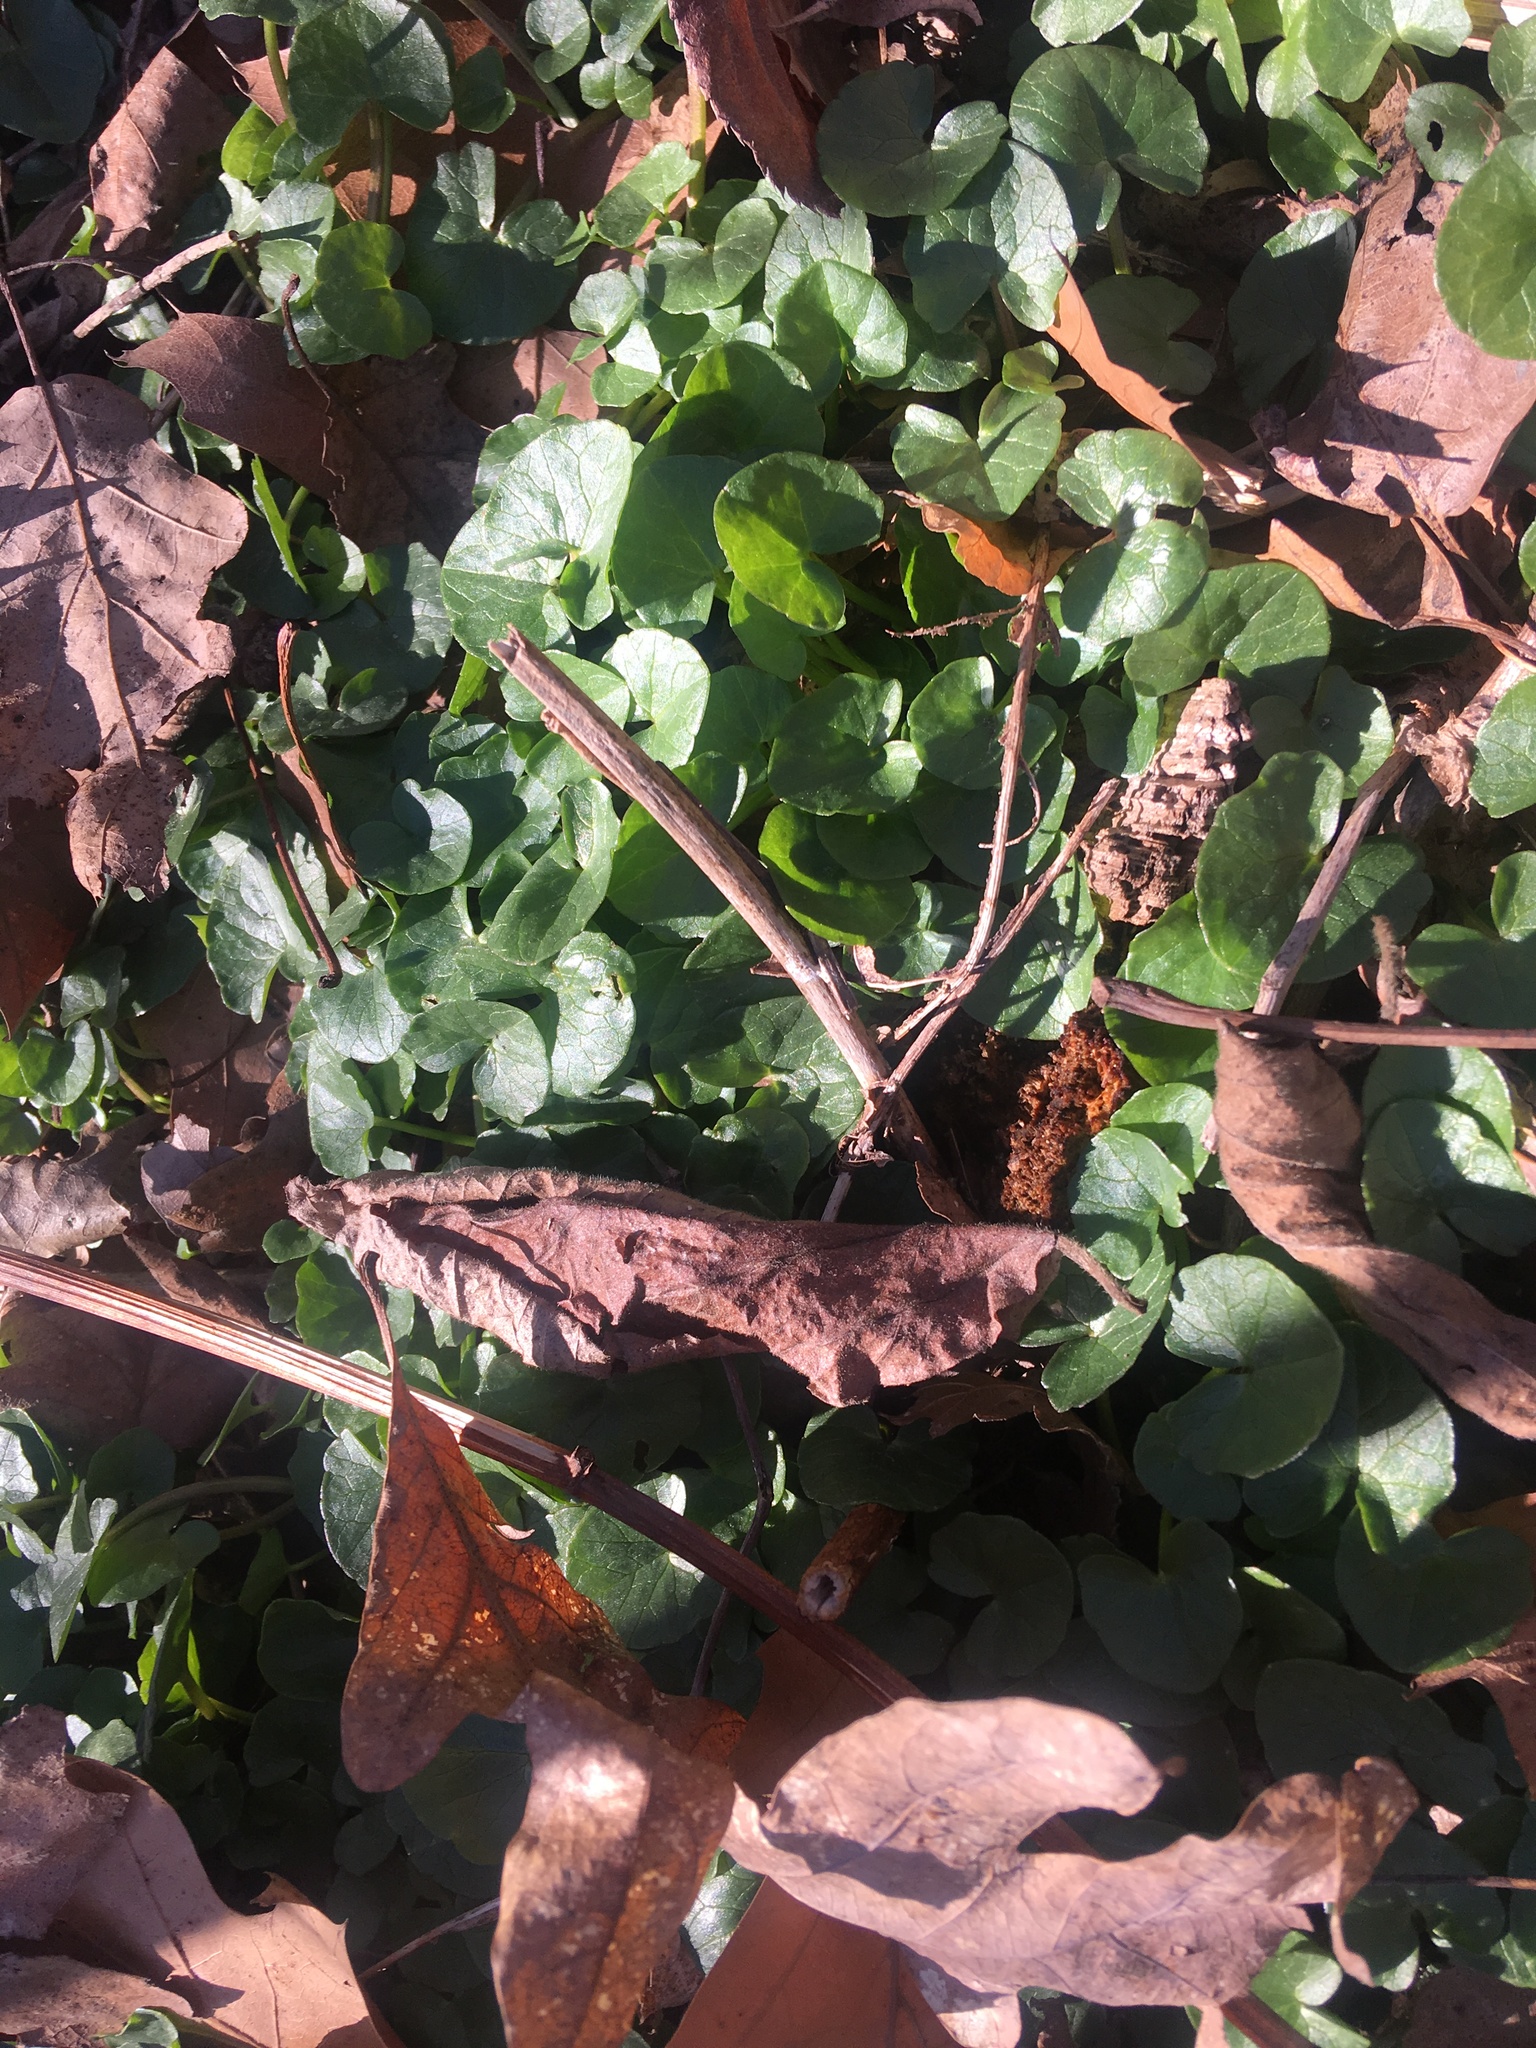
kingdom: Plantae
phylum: Tracheophyta
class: Magnoliopsida
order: Ranunculales
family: Ranunculaceae
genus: Ficaria
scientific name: Ficaria verna
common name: Lesser celandine
